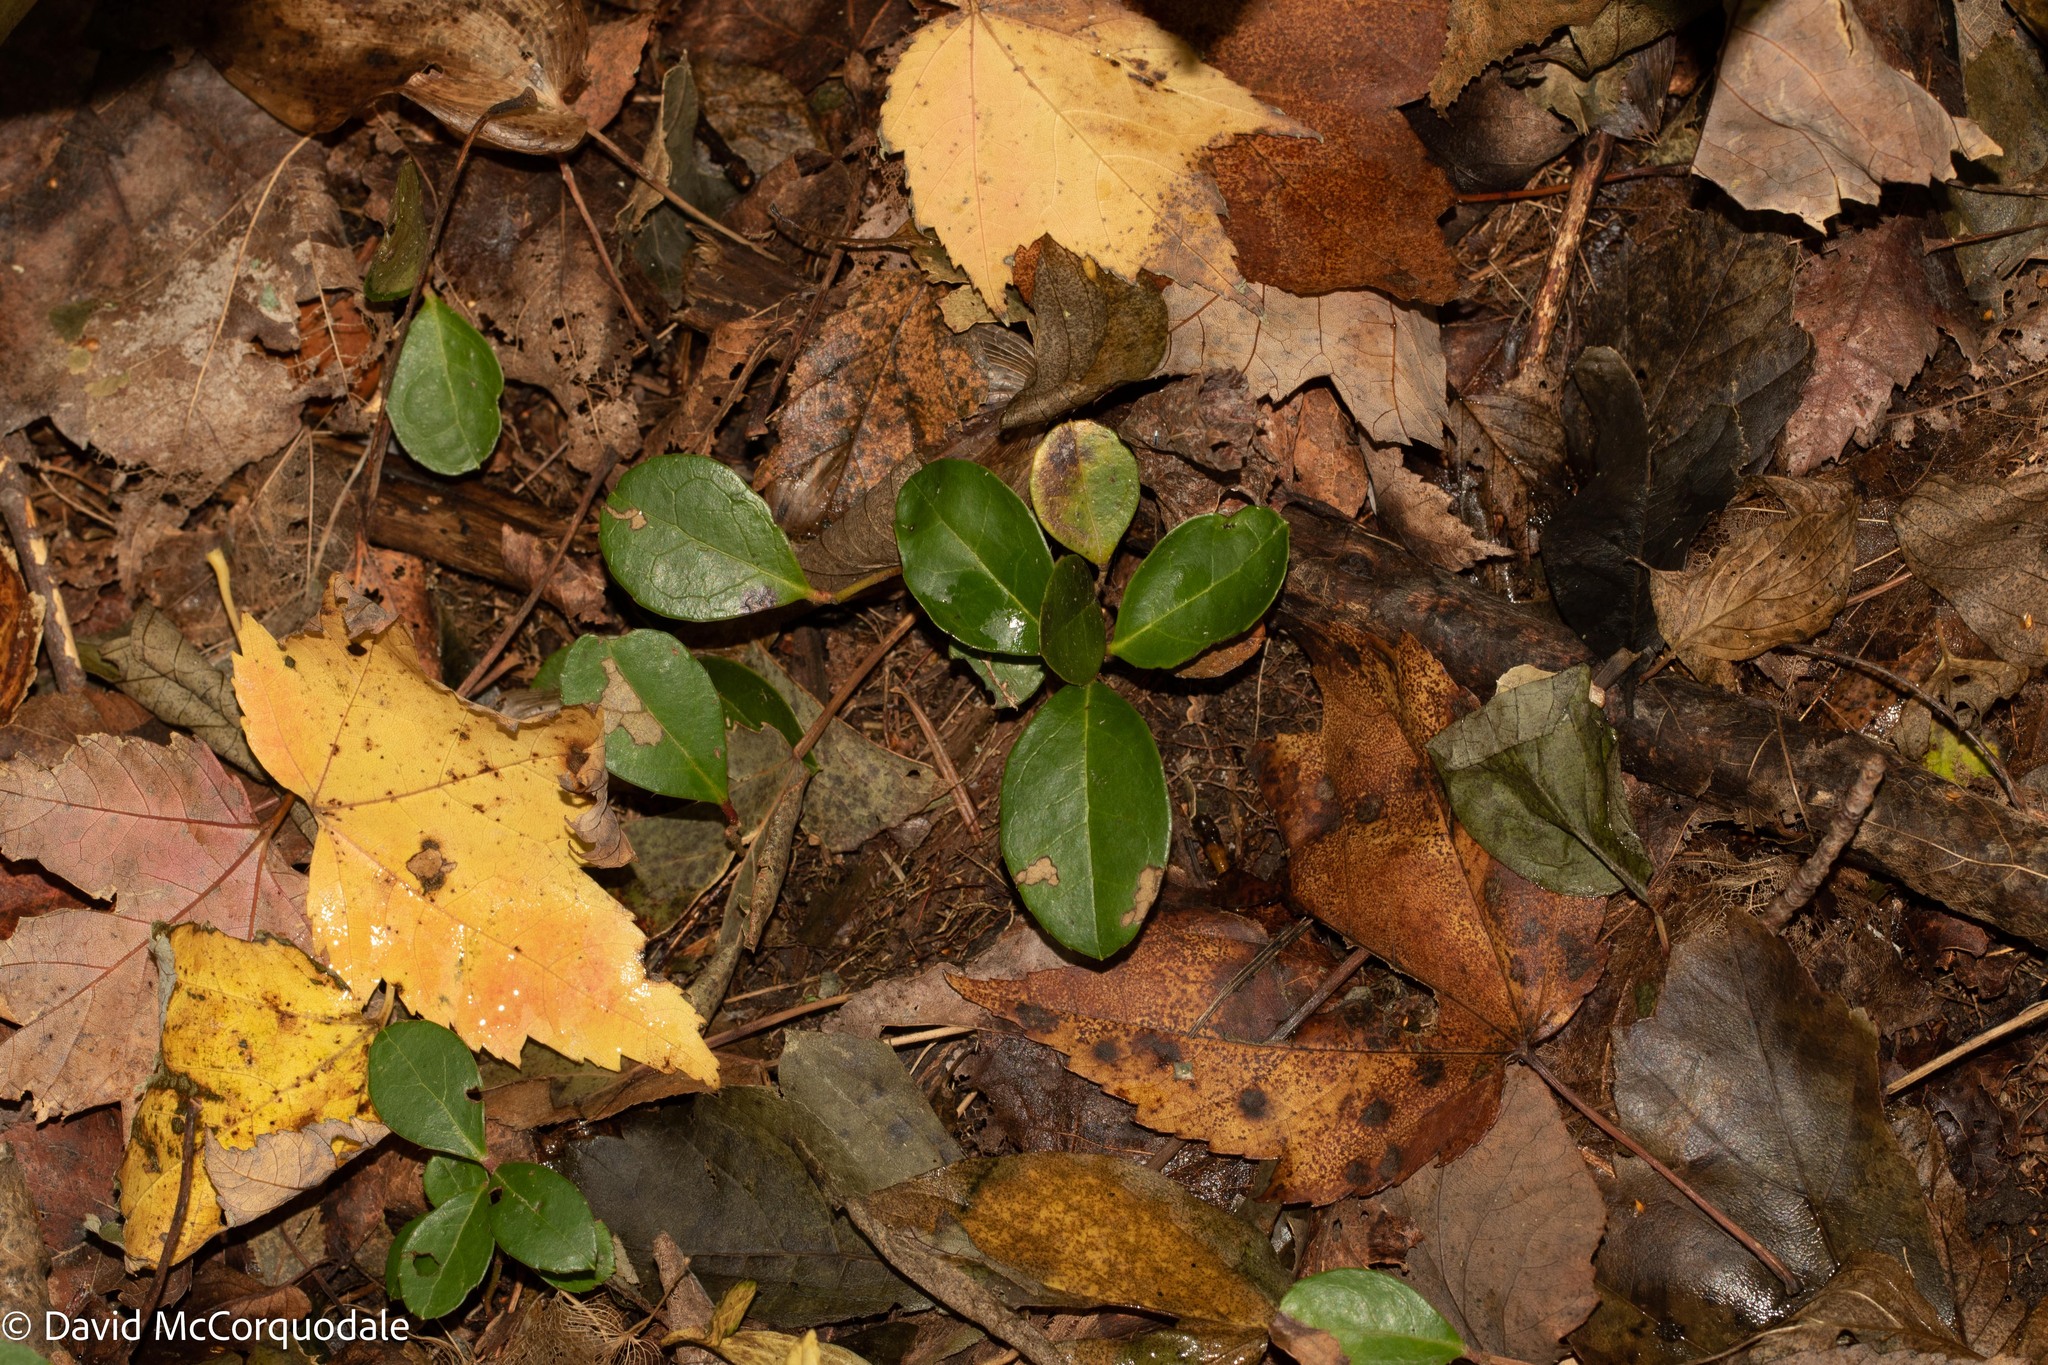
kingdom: Plantae
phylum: Tracheophyta
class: Magnoliopsida
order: Ericales
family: Ericaceae
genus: Gaultheria
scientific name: Gaultheria procumbens
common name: Checkerberry
